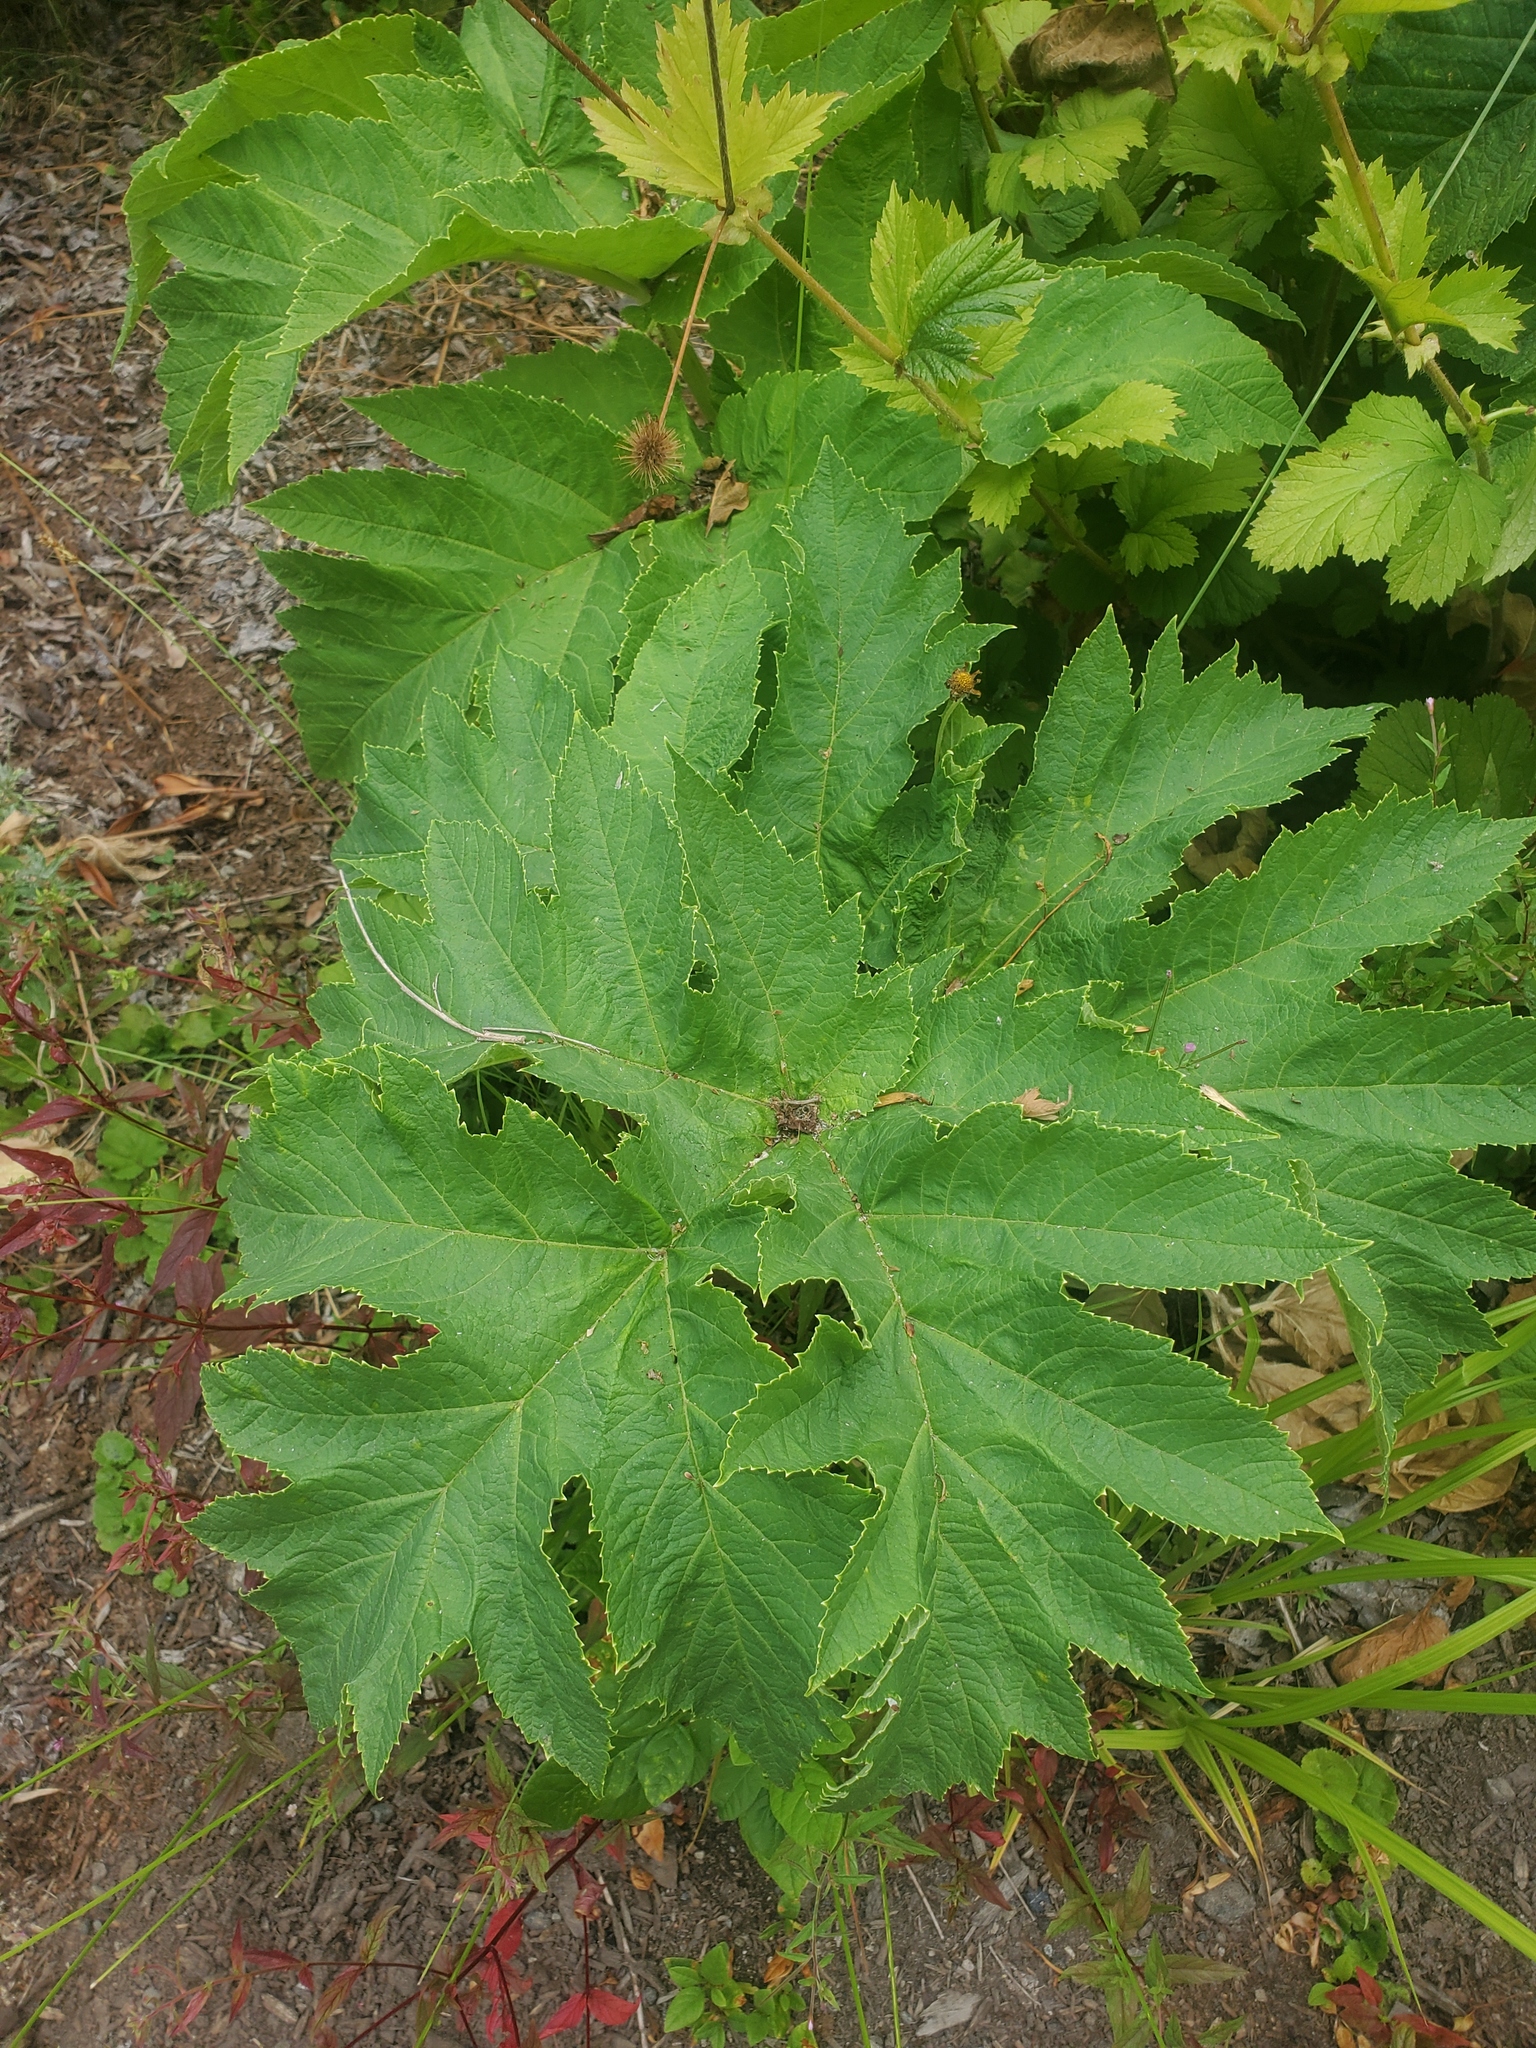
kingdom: Plantae
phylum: Tracheophyta
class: Magnoliopsida
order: Apiales
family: Apiaceae
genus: Heracleum
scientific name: Heracleum maximum
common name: American cow parsnip
